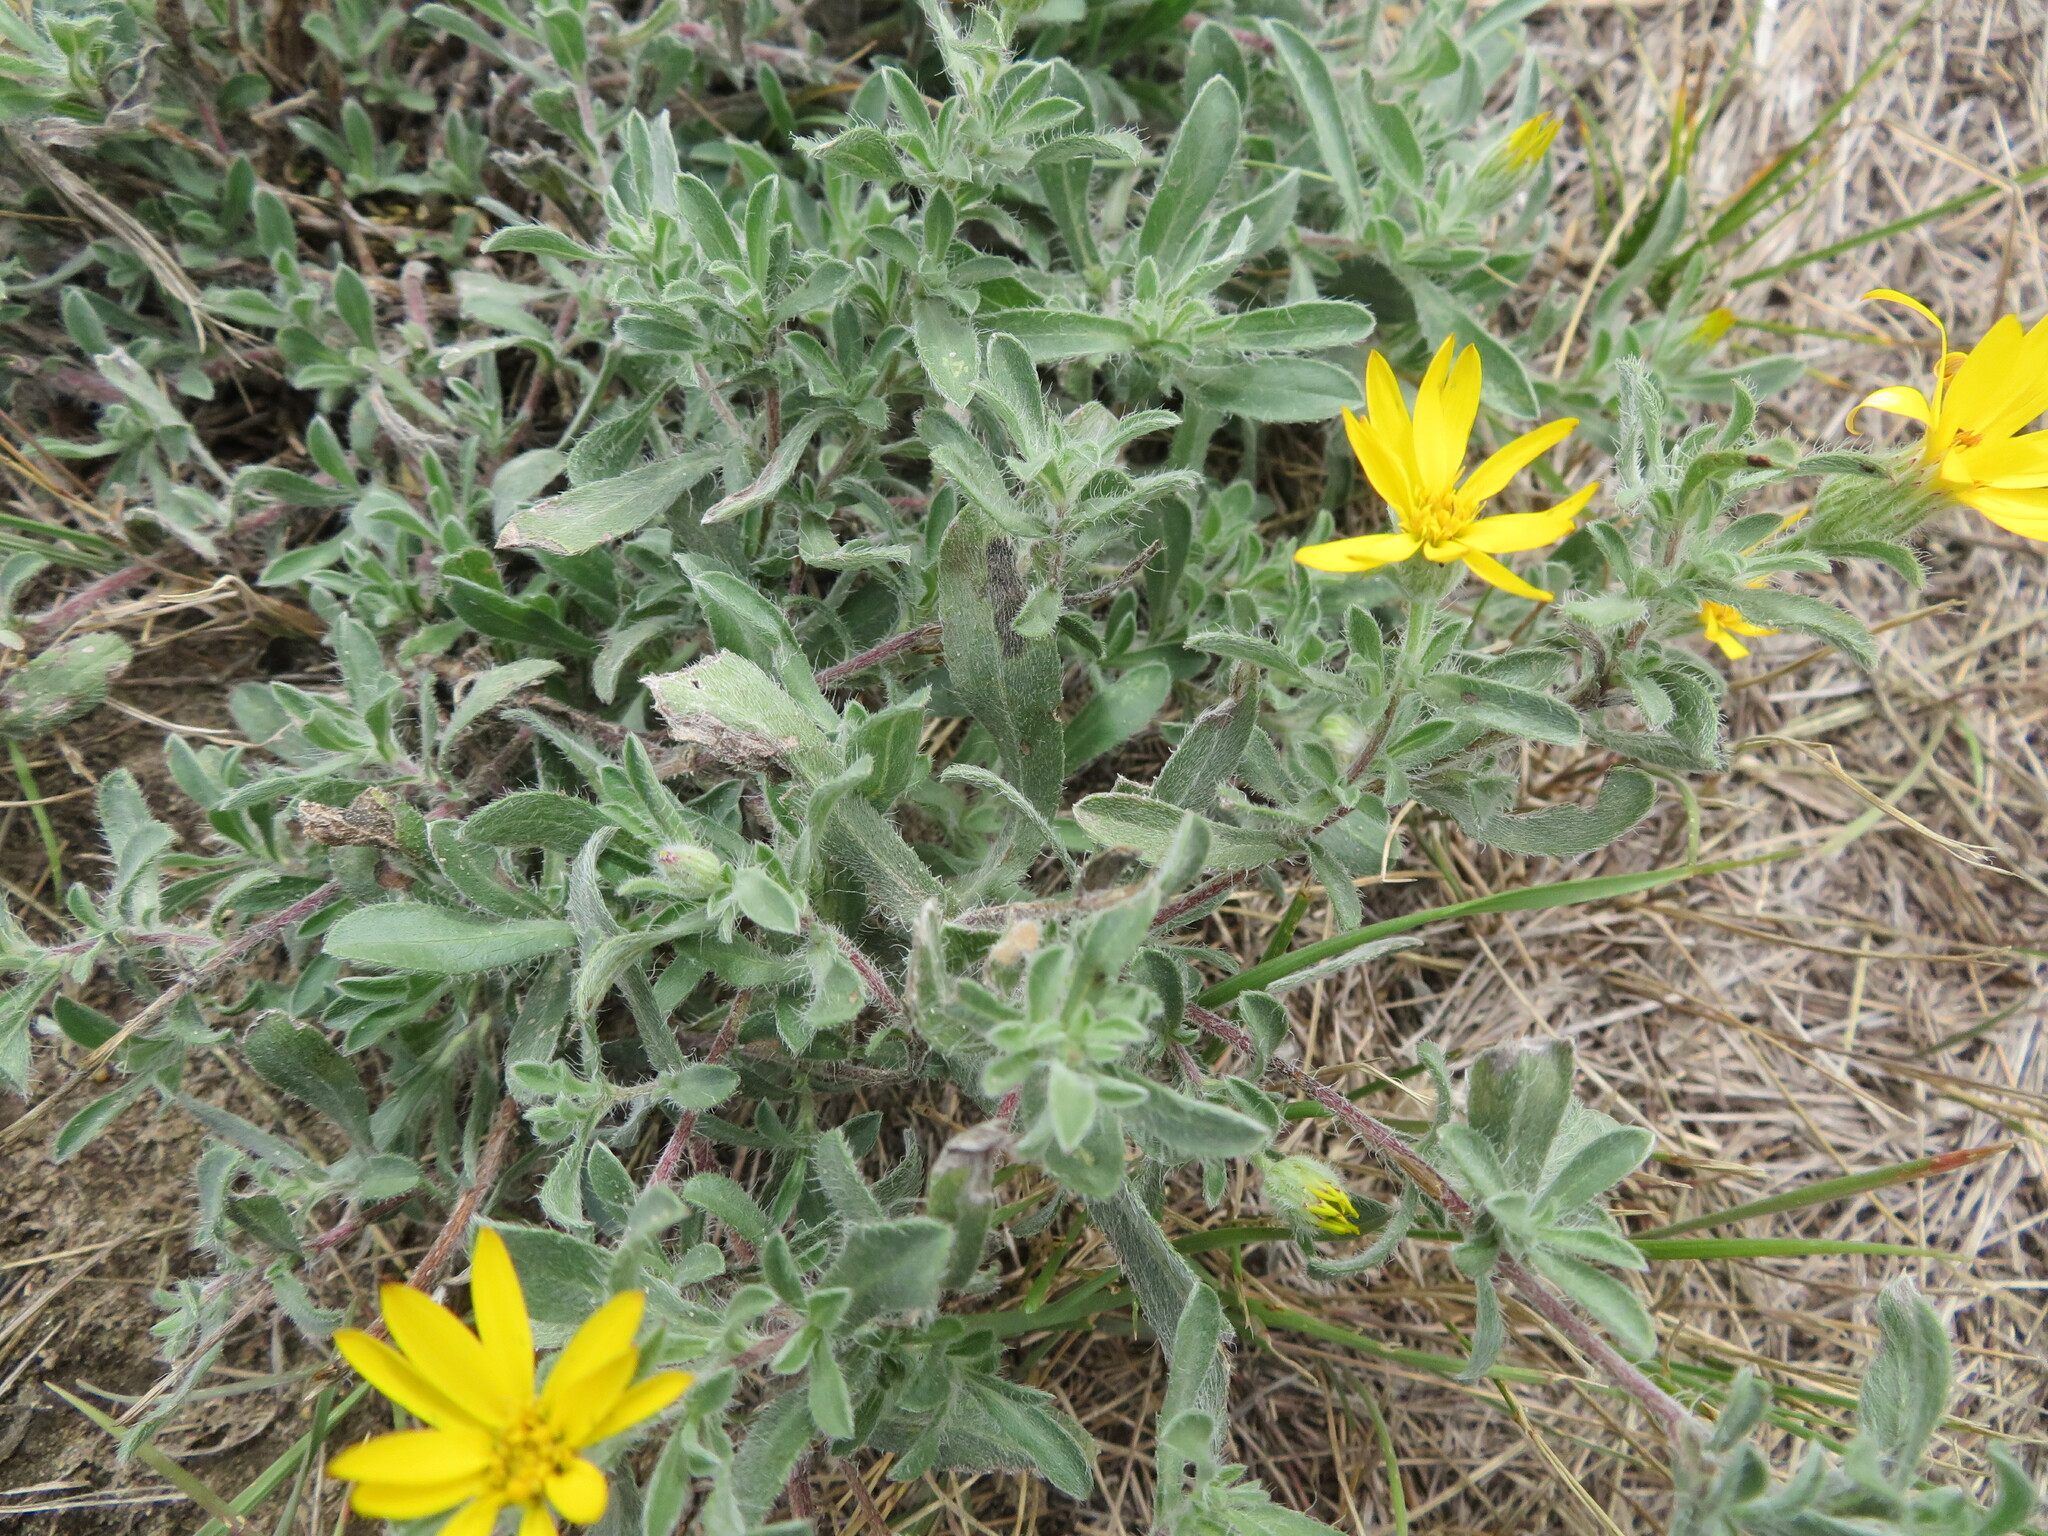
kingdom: Plantae
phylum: Tracheophyta
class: Magnoliopsida
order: Asterales
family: Asteraceae
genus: Heterotheca
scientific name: Heterotheca villosa
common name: Hairy false goldenaster
